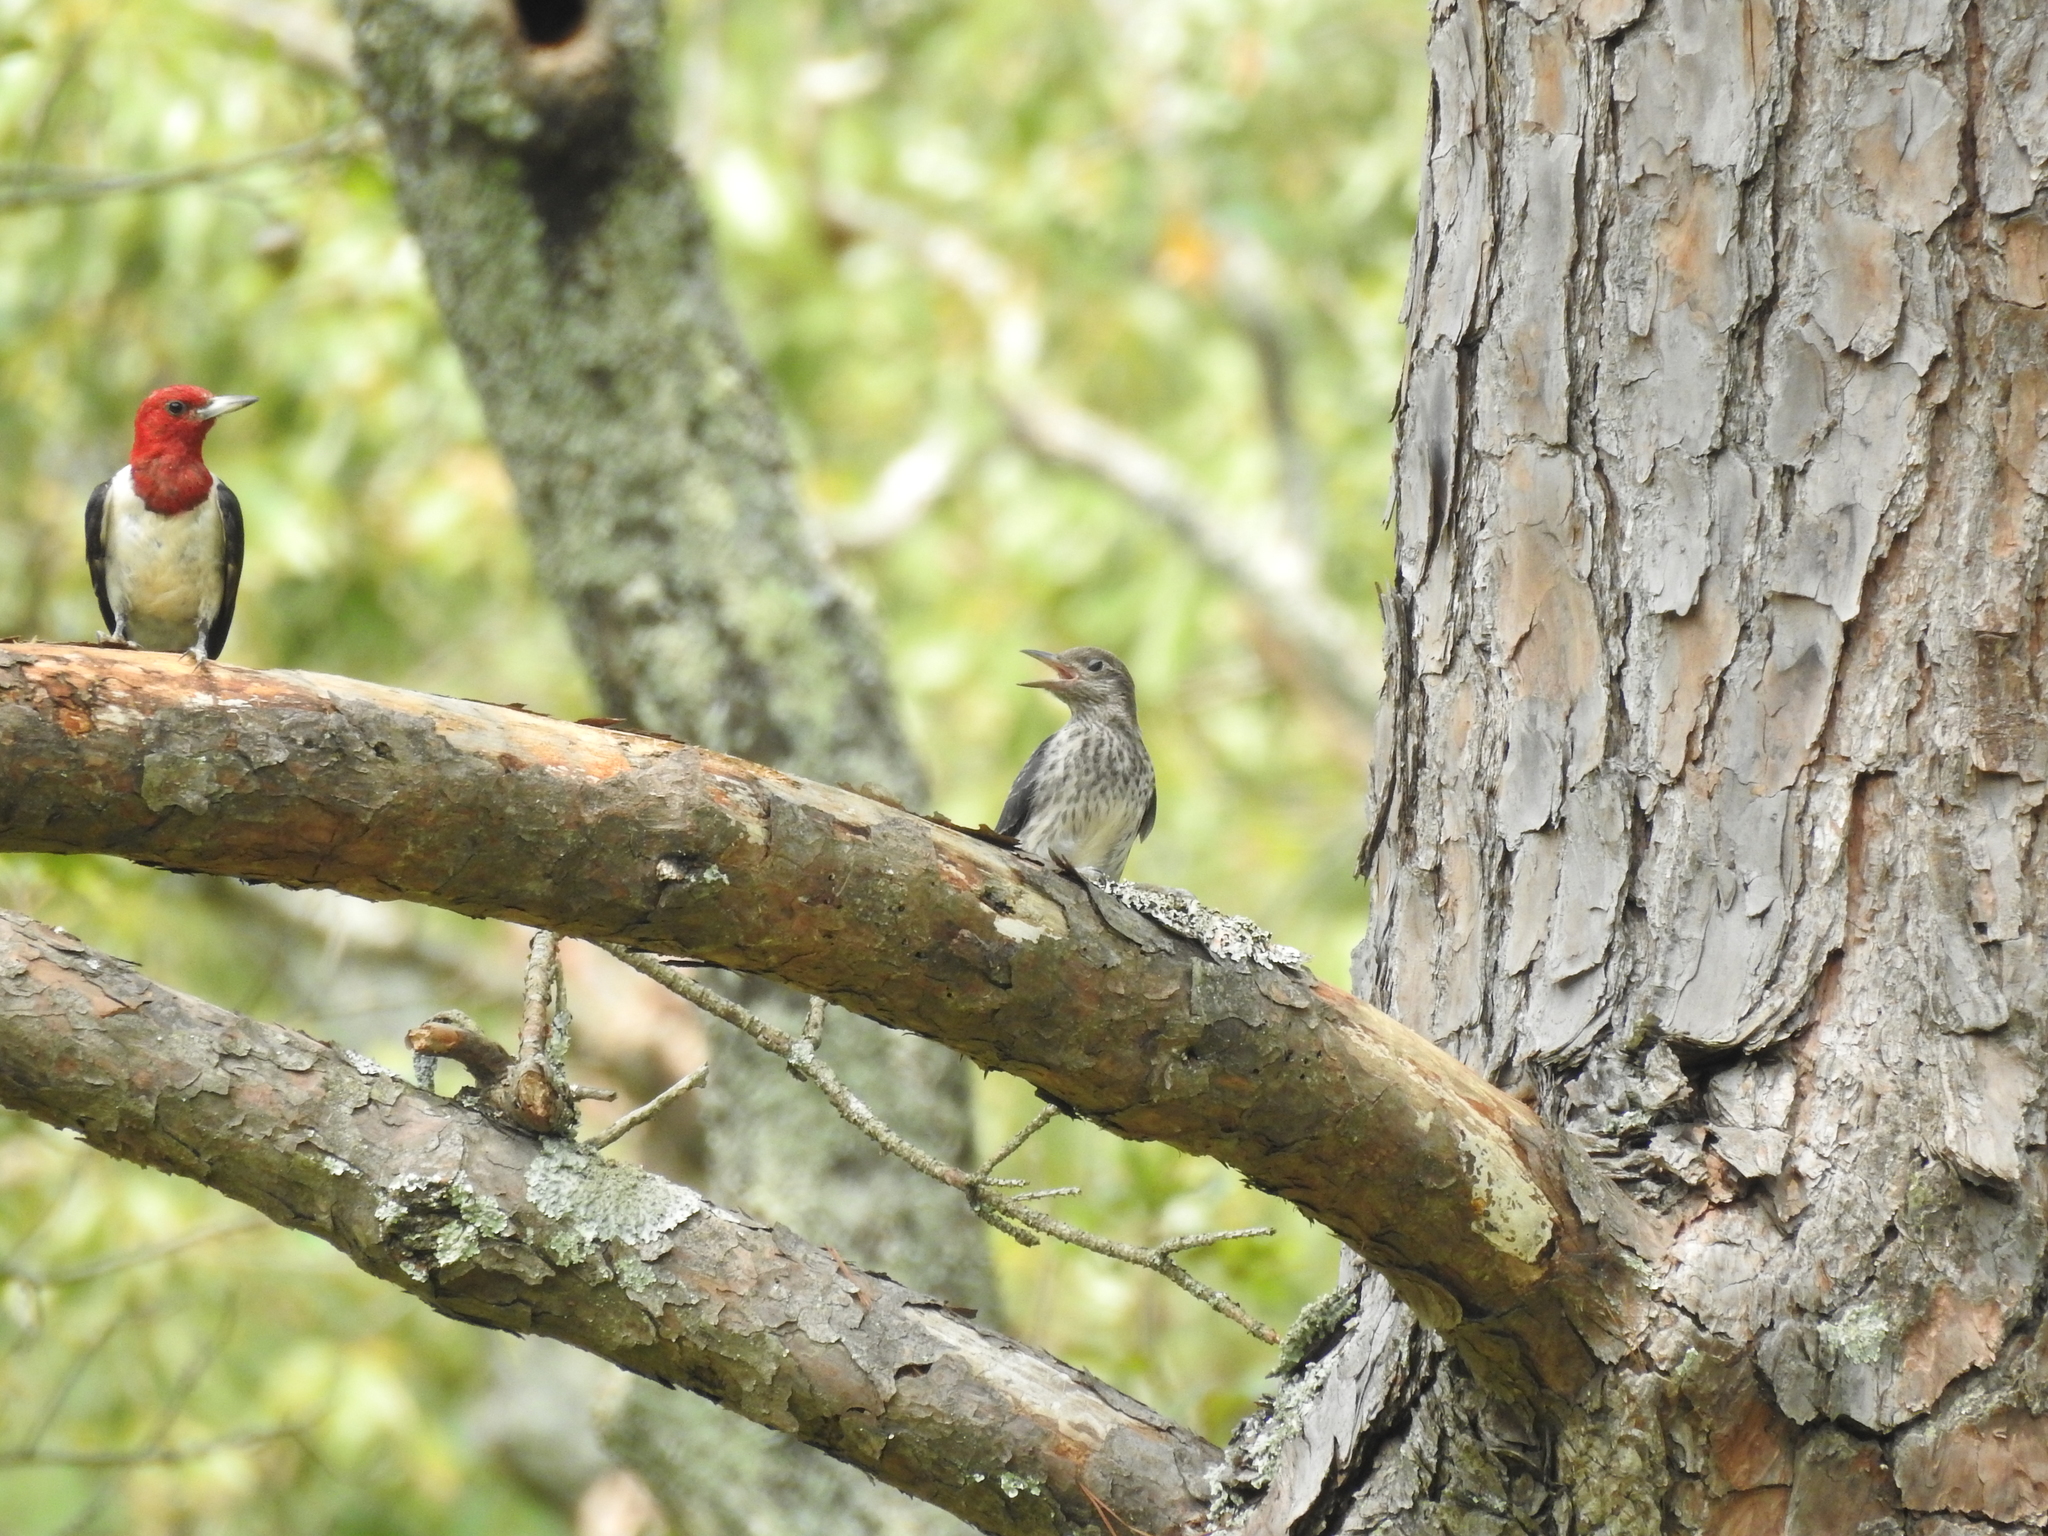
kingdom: Animalia
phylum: Chordata
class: Aves
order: Piciformes
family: Picidae
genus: Melanerpes
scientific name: Melanerpes erythrocephalus
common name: Red-headed woodpecker
